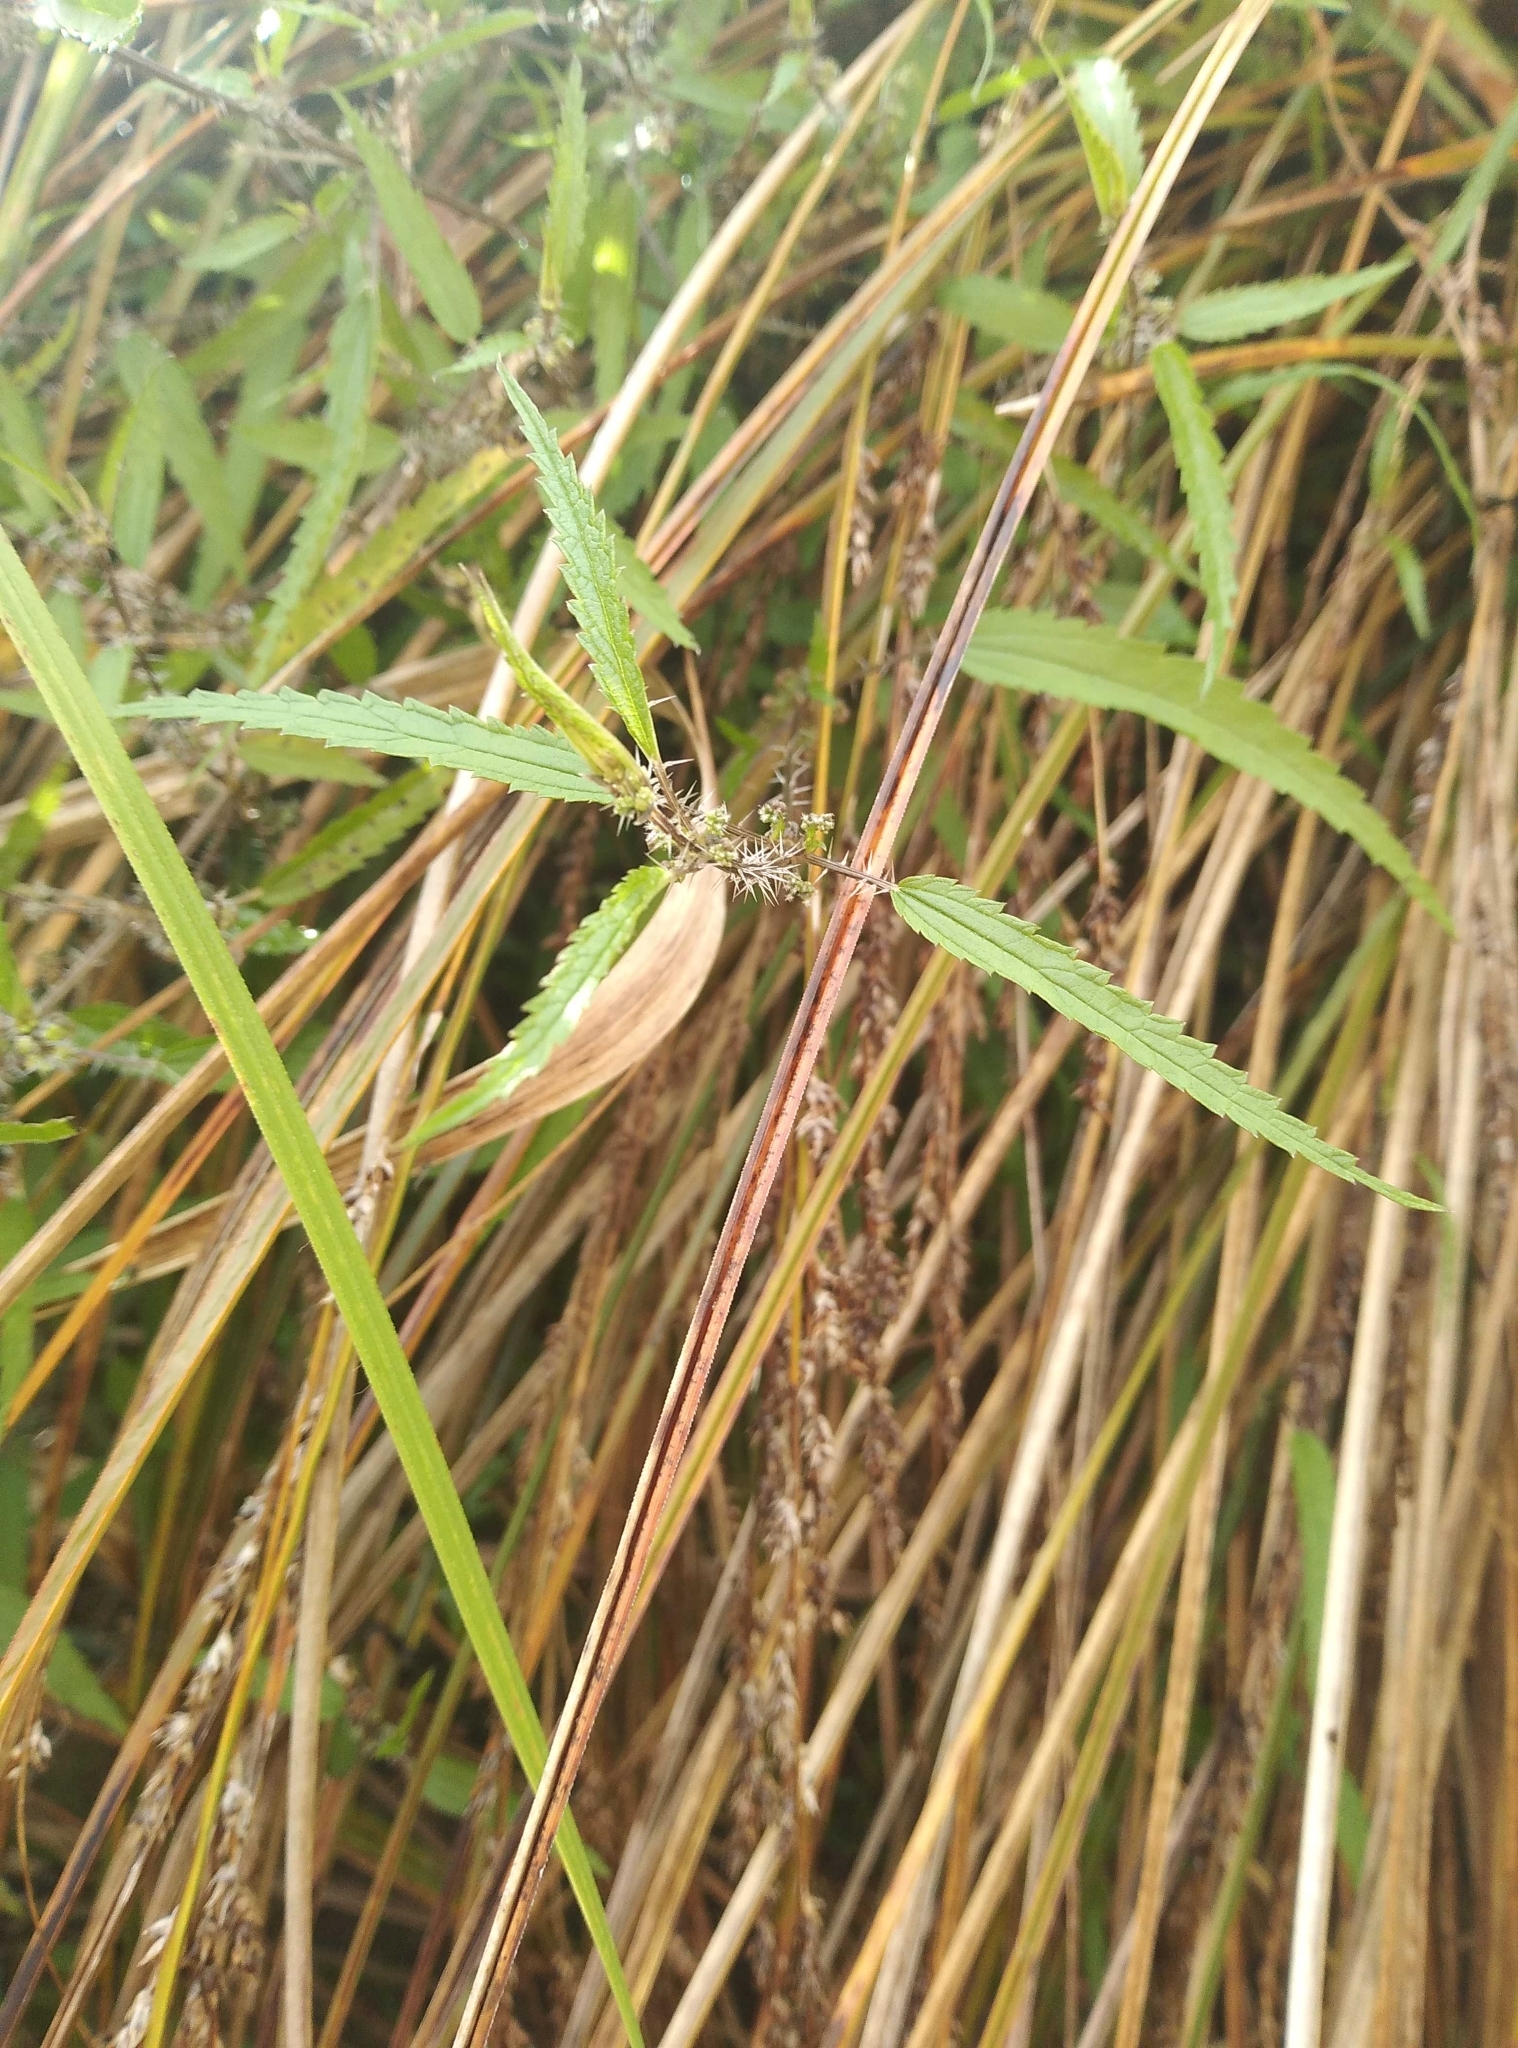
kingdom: Plantae
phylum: Tracheophyta
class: Magnoliopsida
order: Rosales
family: Urticaceae
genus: Urtica
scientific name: Urtica perconfusa
